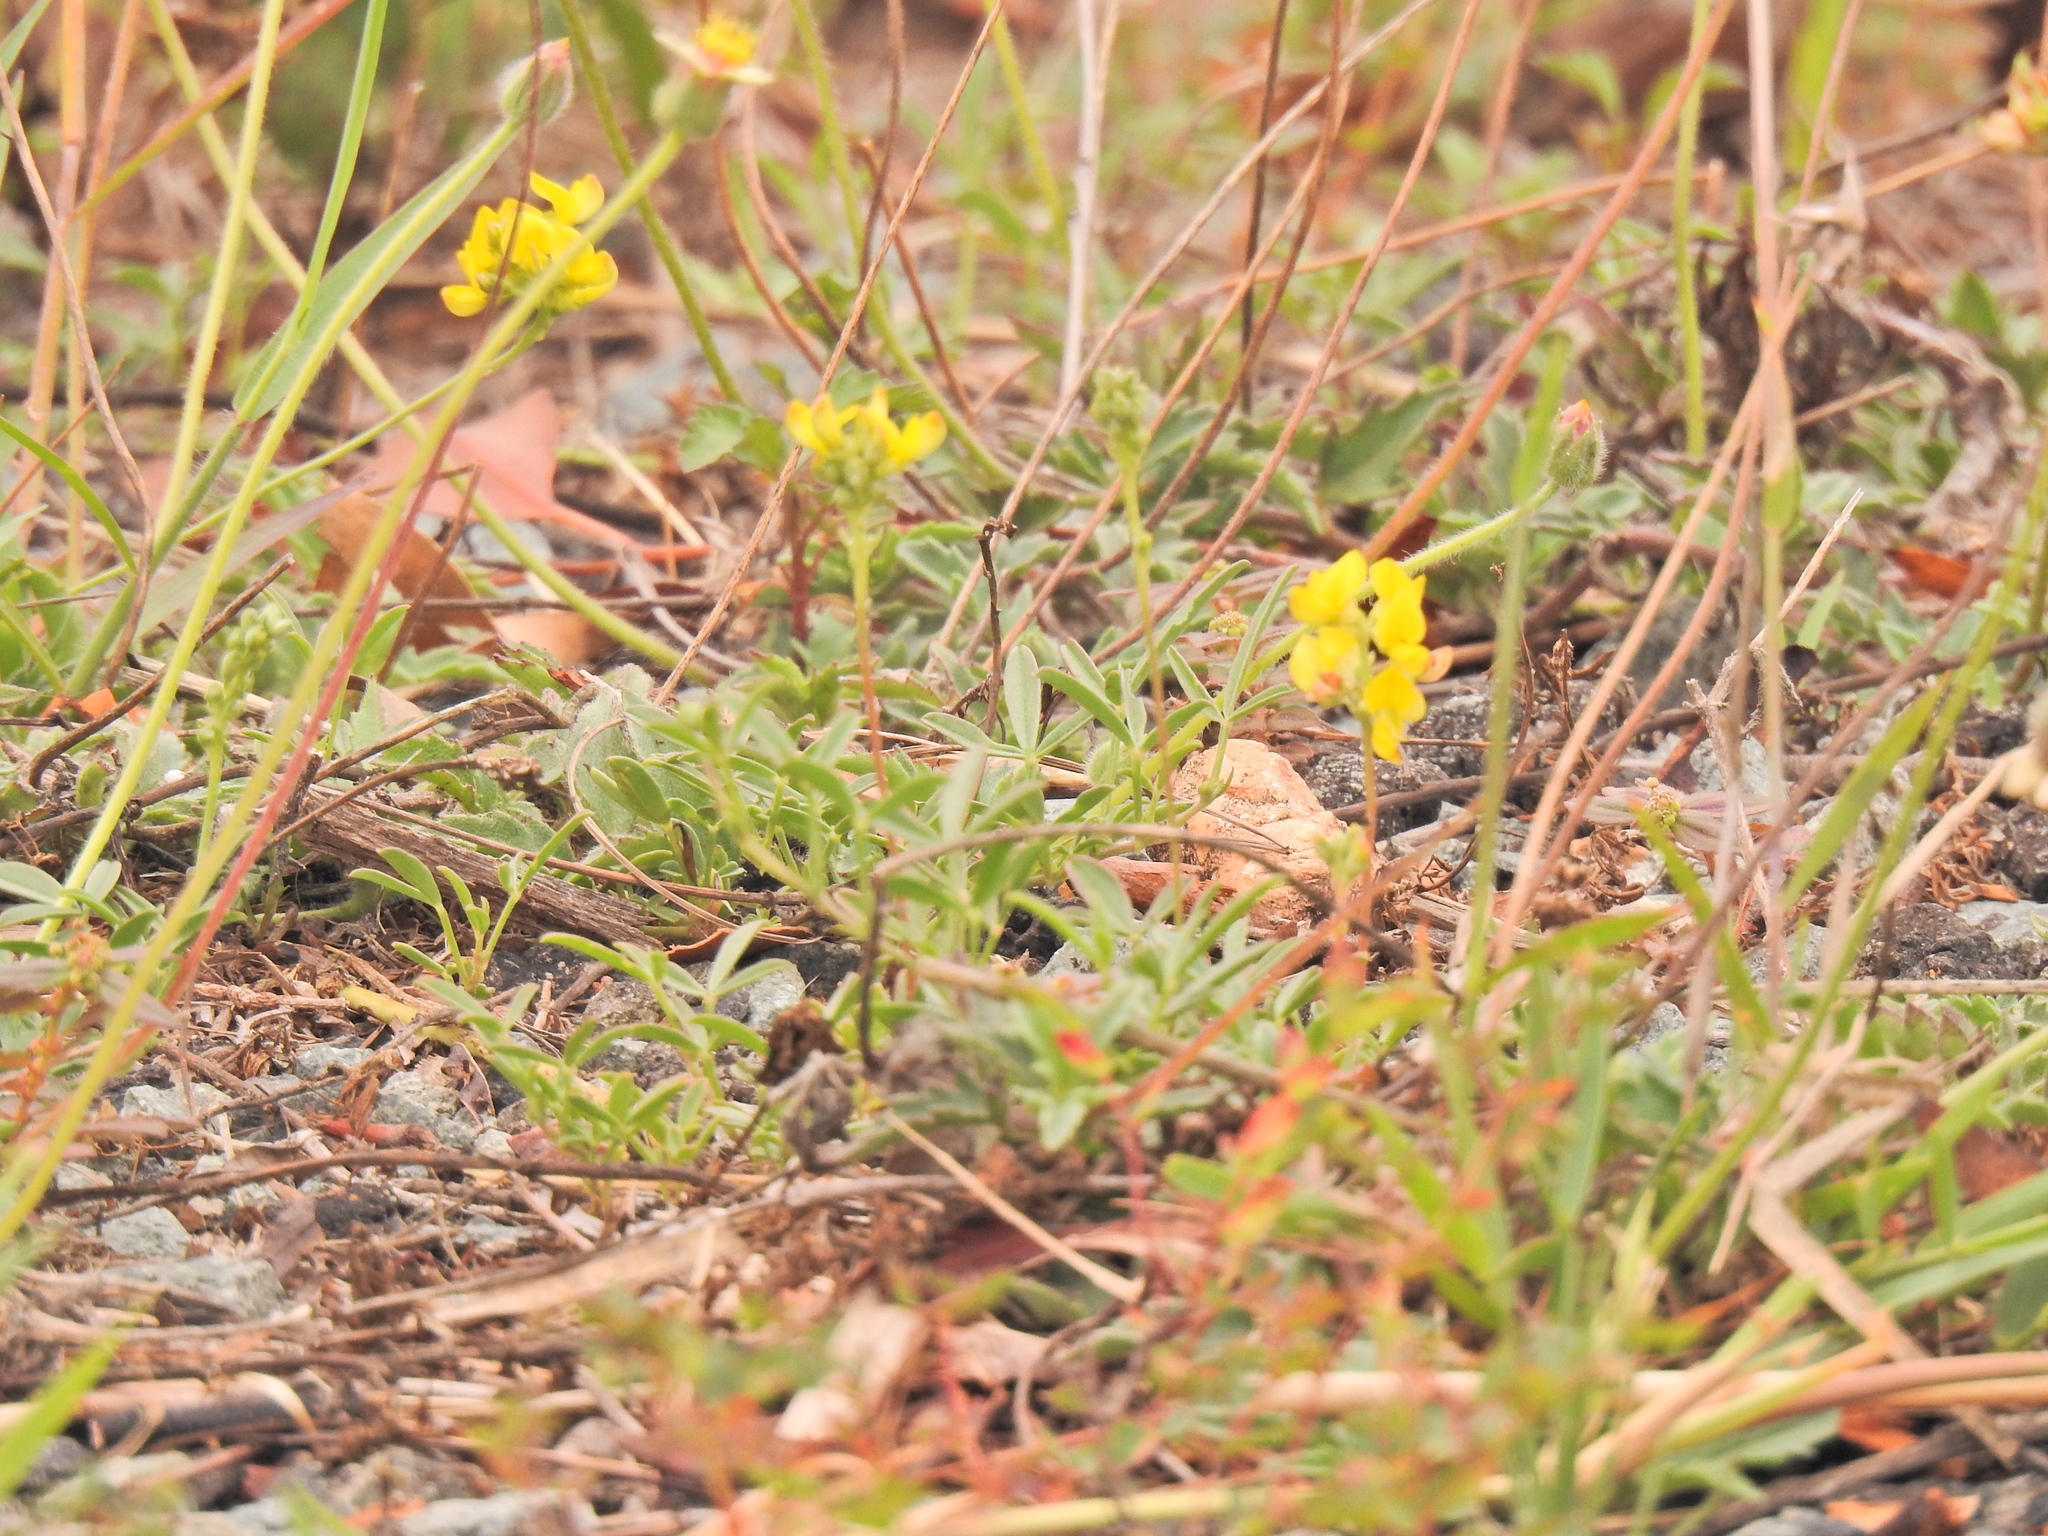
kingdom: Plantae
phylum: Tracheophyta
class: Magnoliopsida
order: Fabales
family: Fabaceae
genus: Listia
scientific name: Listia bainesii
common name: Lotononis
